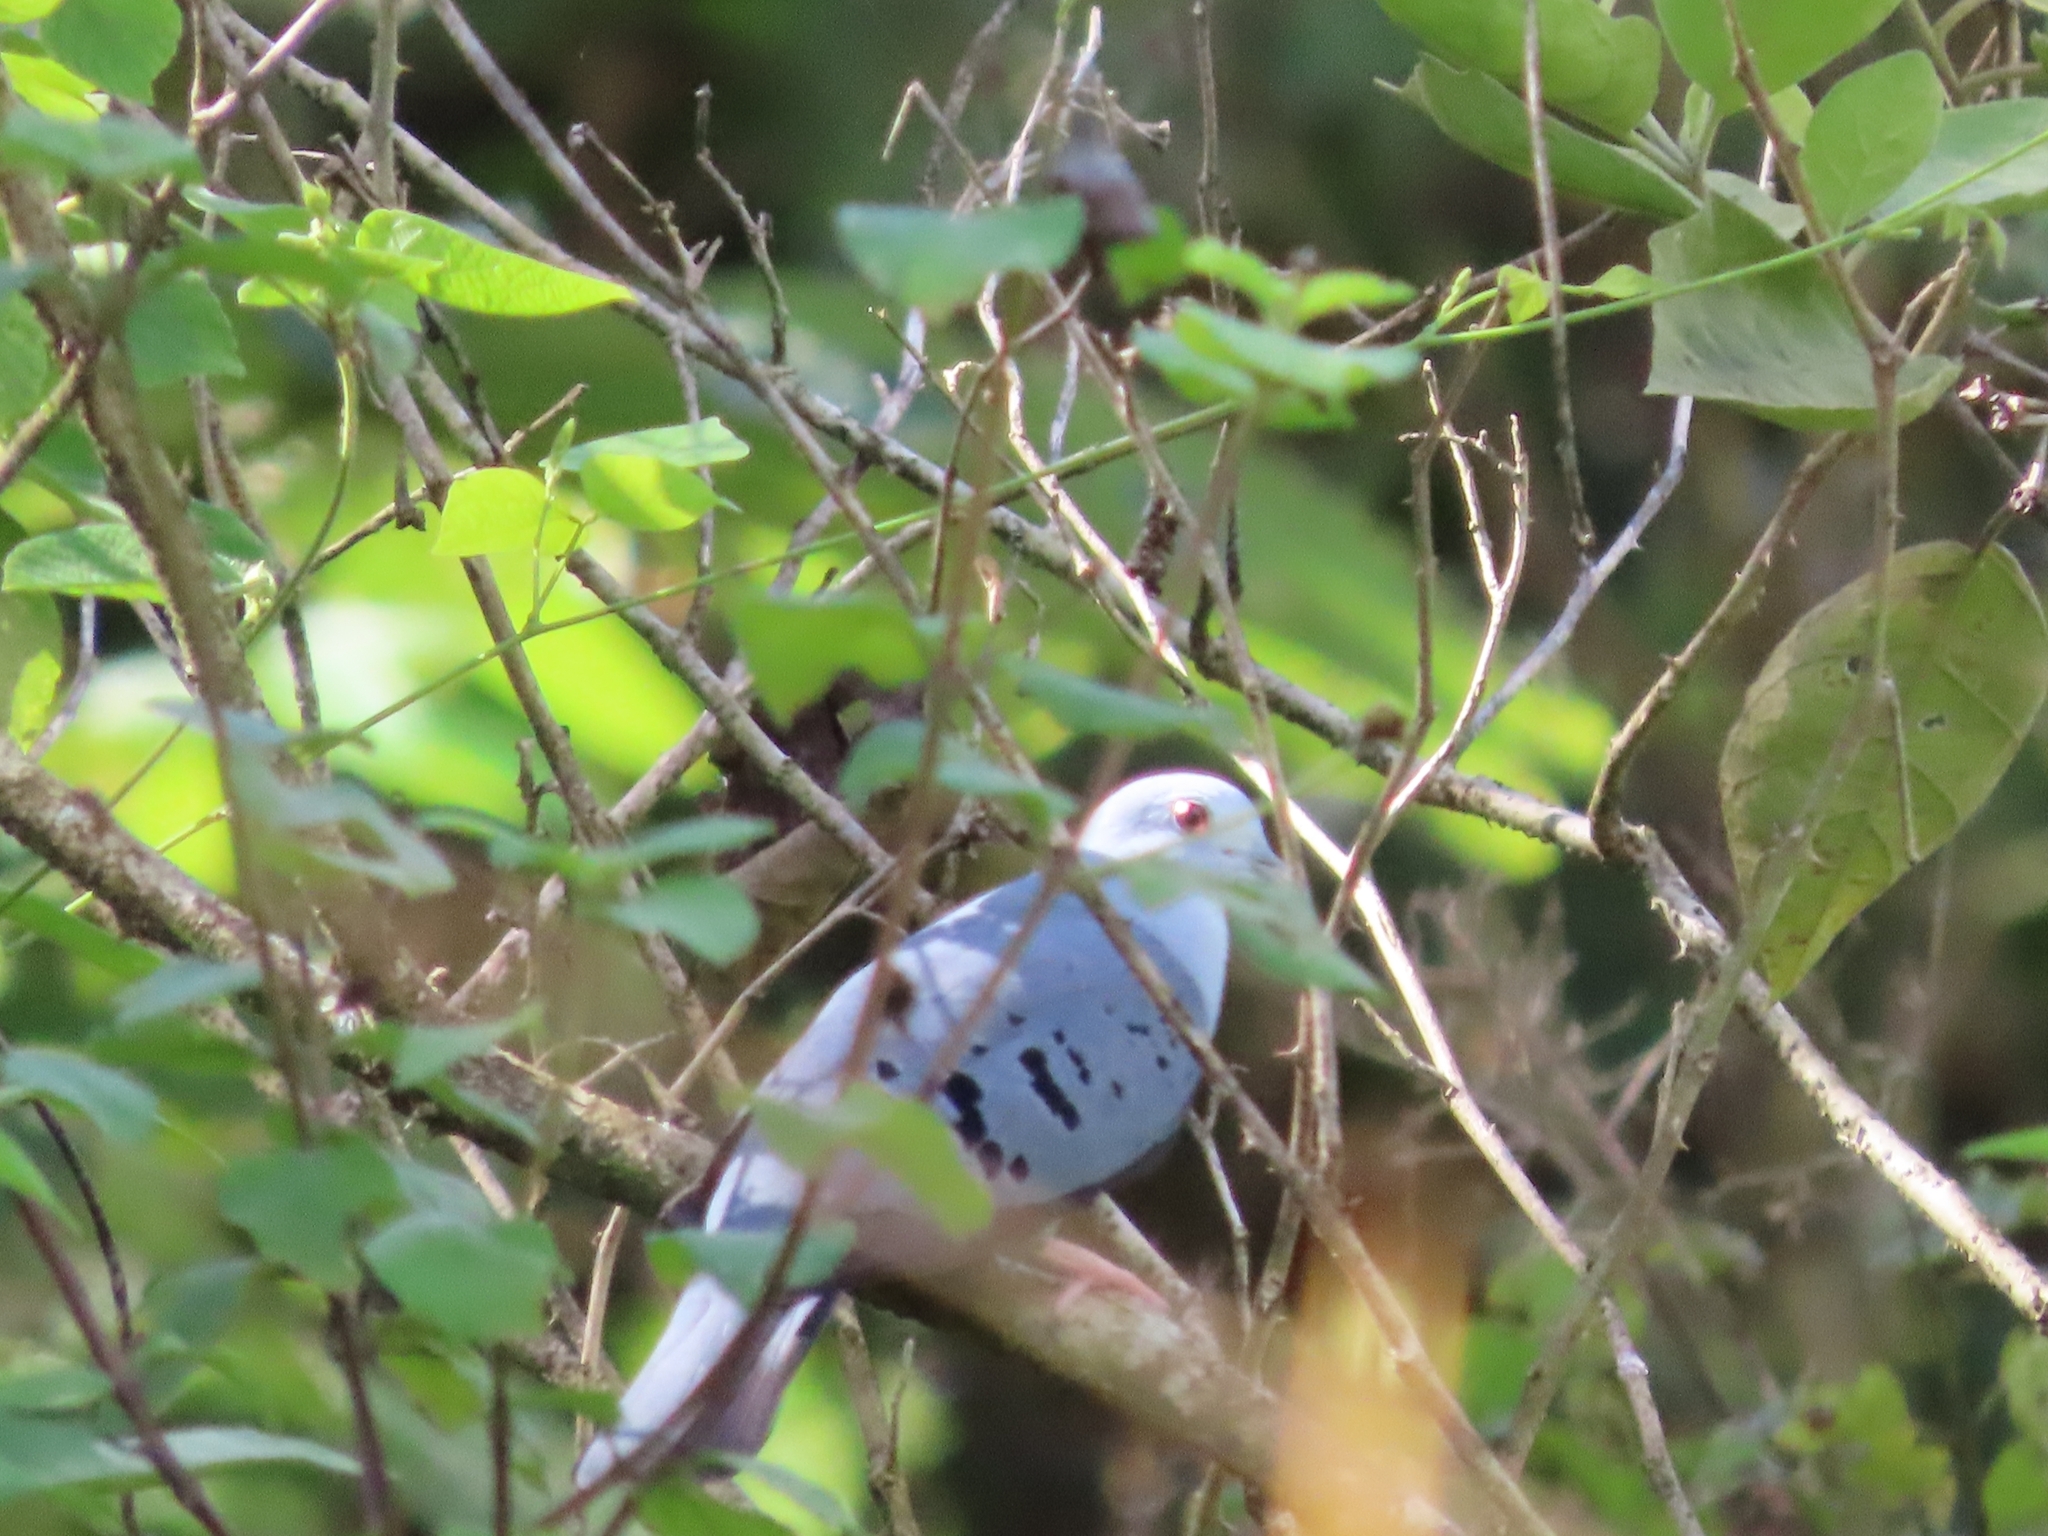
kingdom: Animalia
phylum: Chordata
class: Aves
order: Columbiformes
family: Columbidae
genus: Claravis
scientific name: Claravis pretiosa
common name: Blue ground-dove
